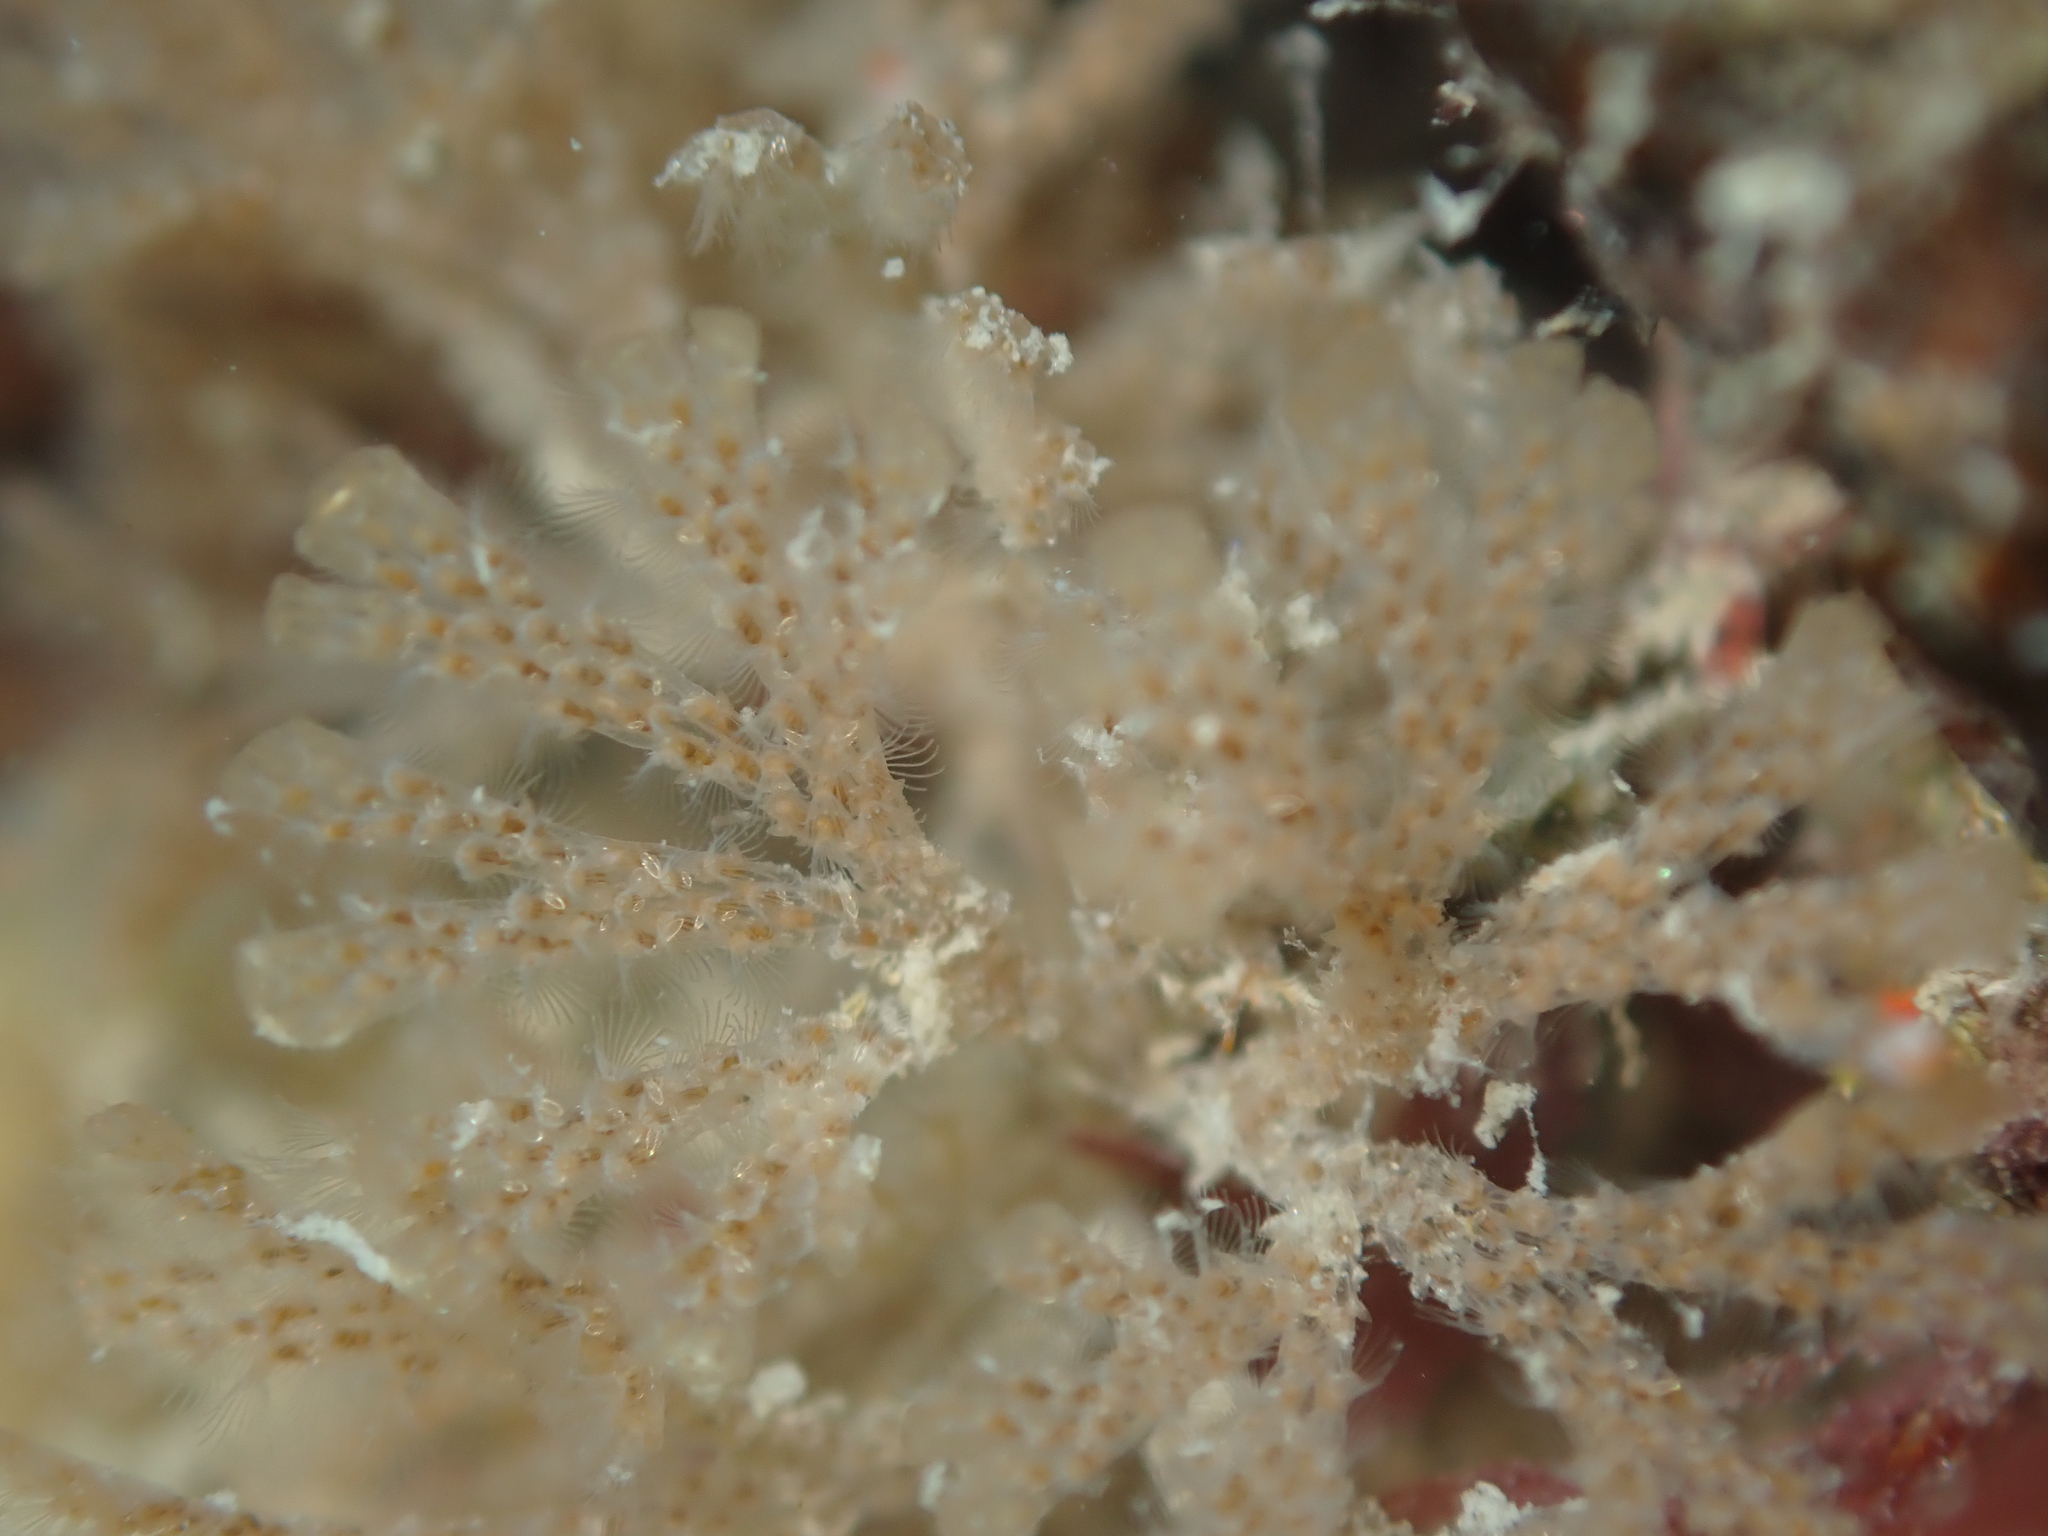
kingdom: Animalia
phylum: Bryozoa
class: Gymnolaemata
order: Cheilostomatida
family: Bugulidae
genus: Bugulina
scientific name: Bugulina flabellata
